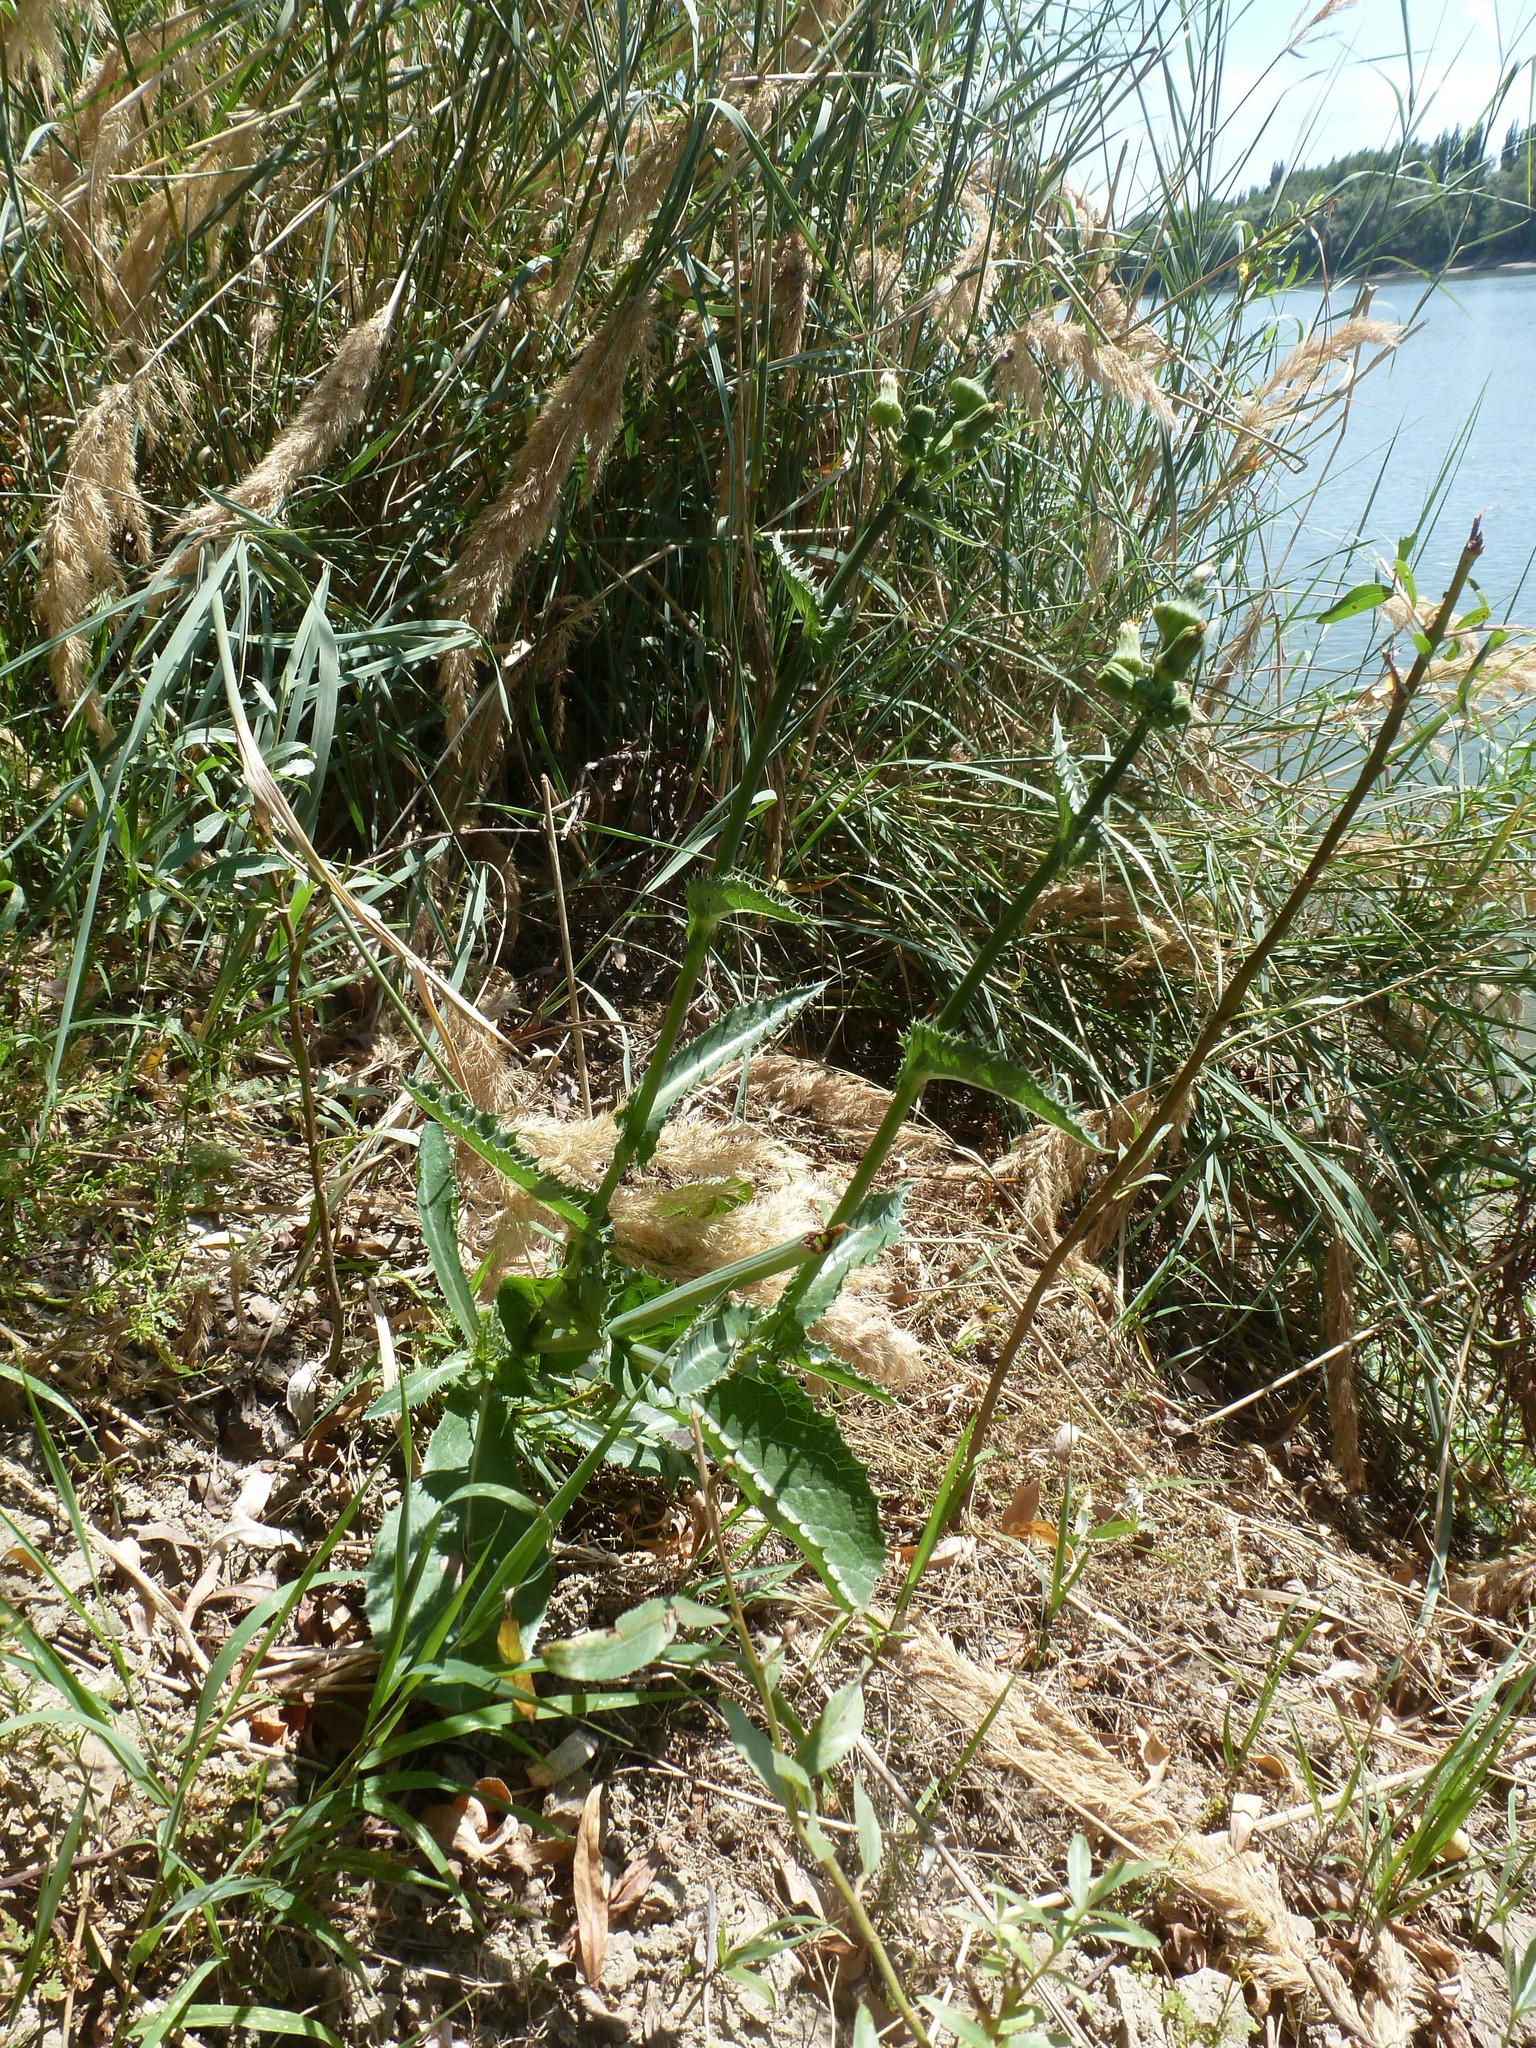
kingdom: Plantae
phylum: Tracheophyta
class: Magnoliopsida
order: Asterales
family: Asteraceae
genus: Sonchus
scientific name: Sonchus asper
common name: Prickly sow-thistle
